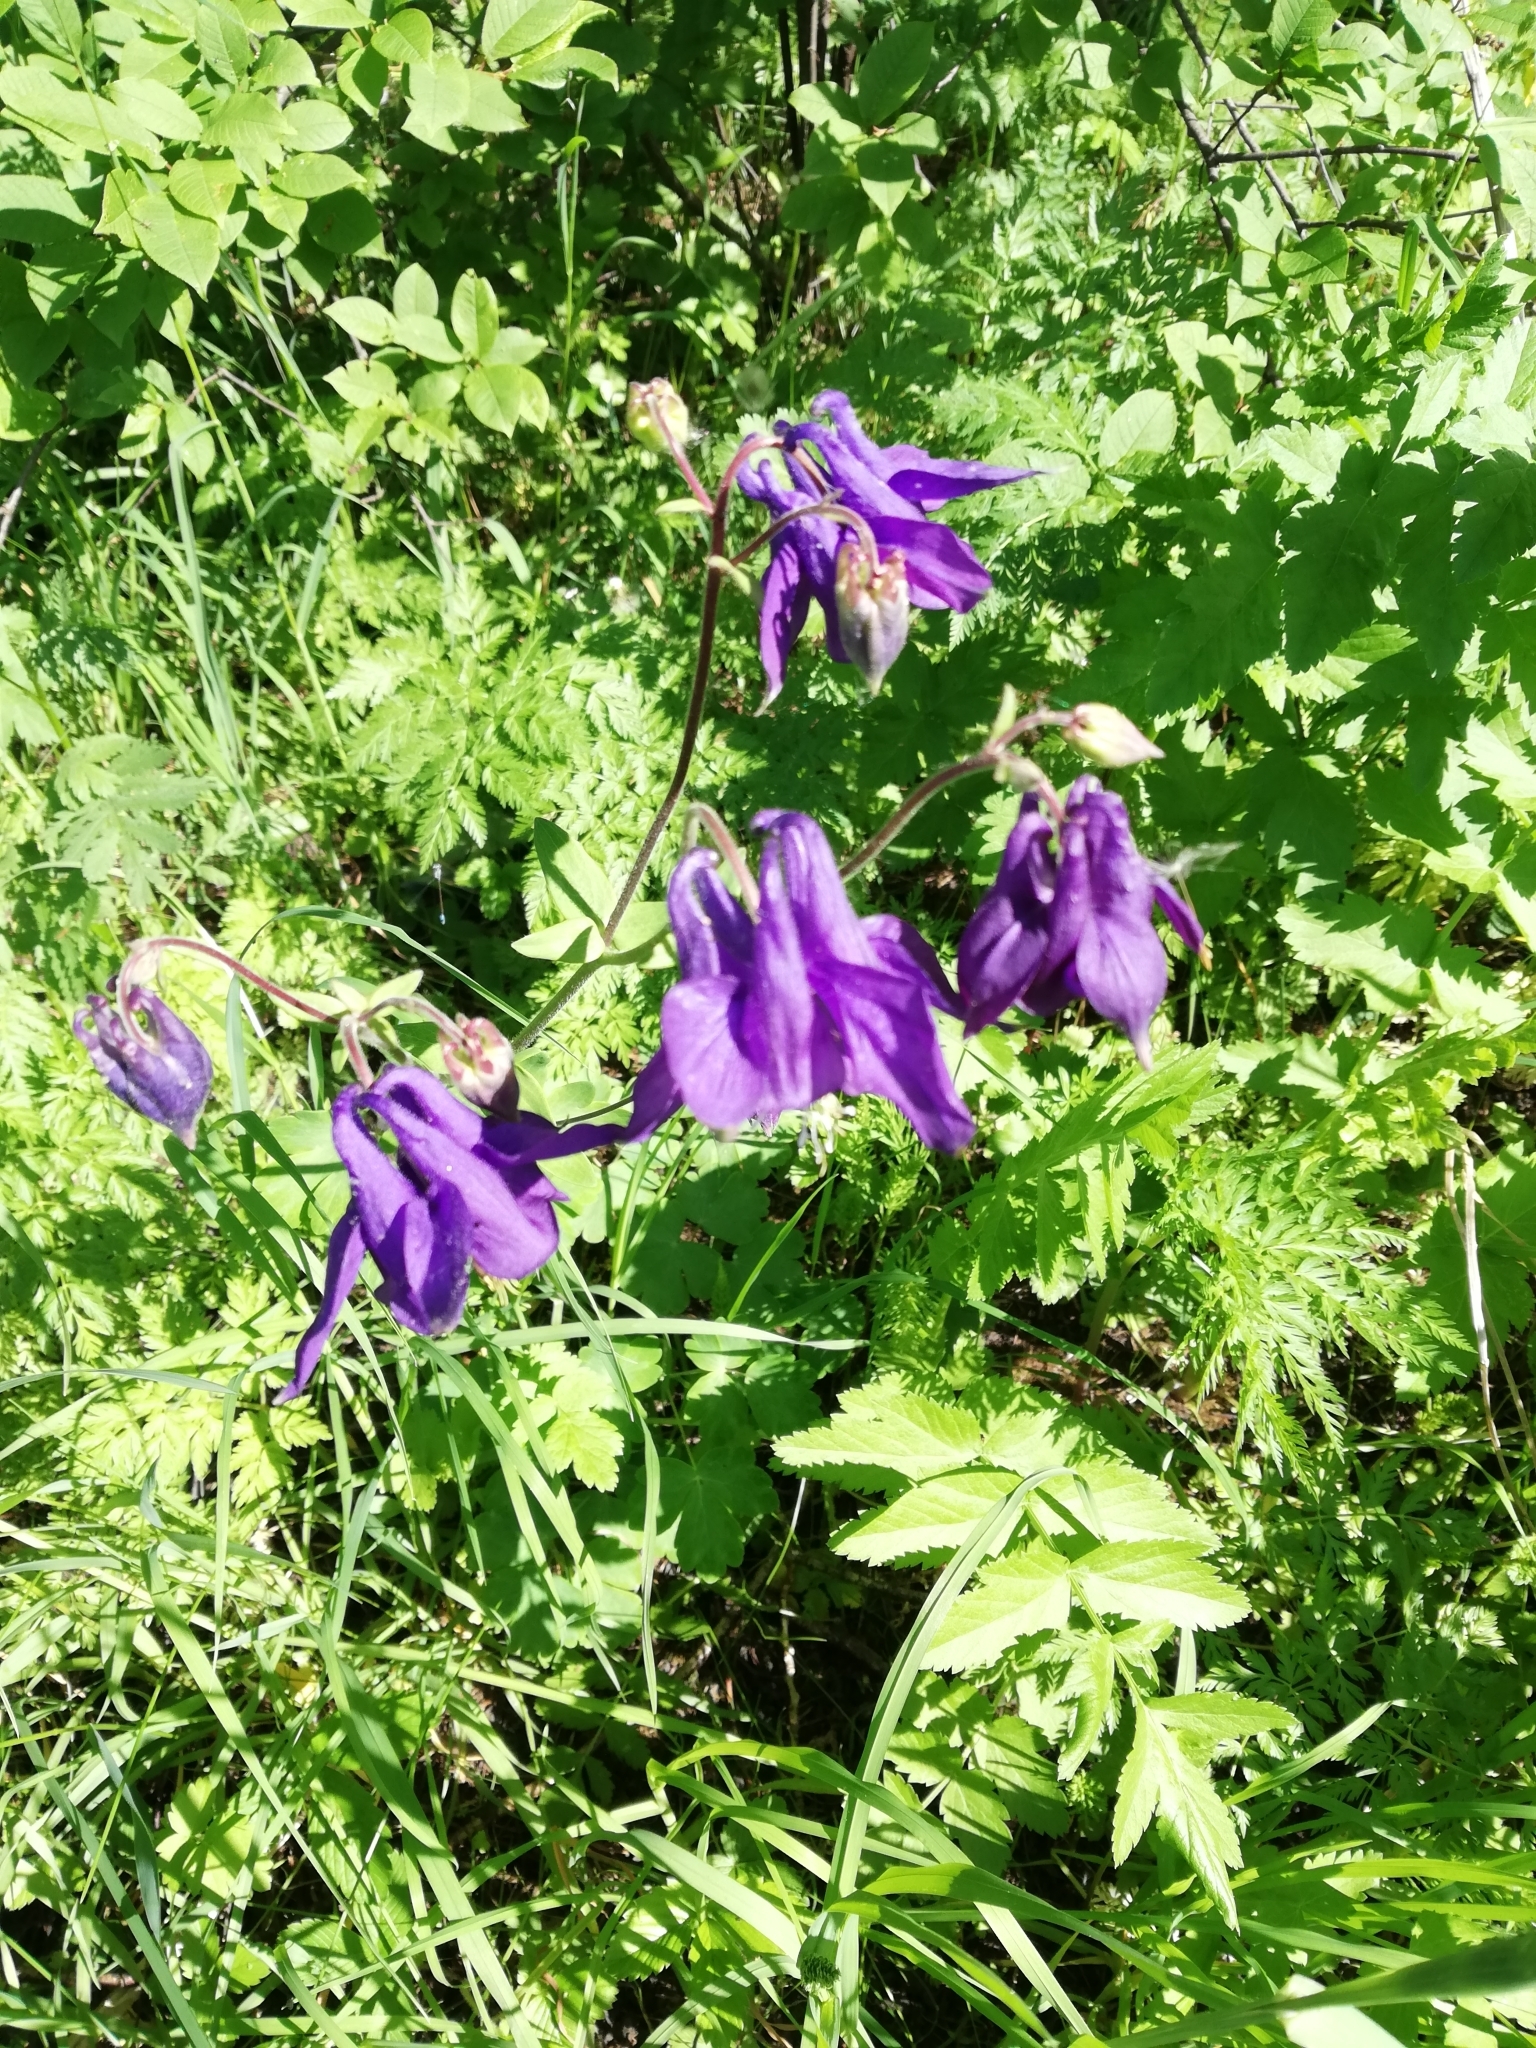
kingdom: Plantae
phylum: Tracheophyta
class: Magnoliopsida
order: Ranunculales
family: Ranunculaceae
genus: Aquilegia
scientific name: Aquilegia vulgaris
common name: Columbine
